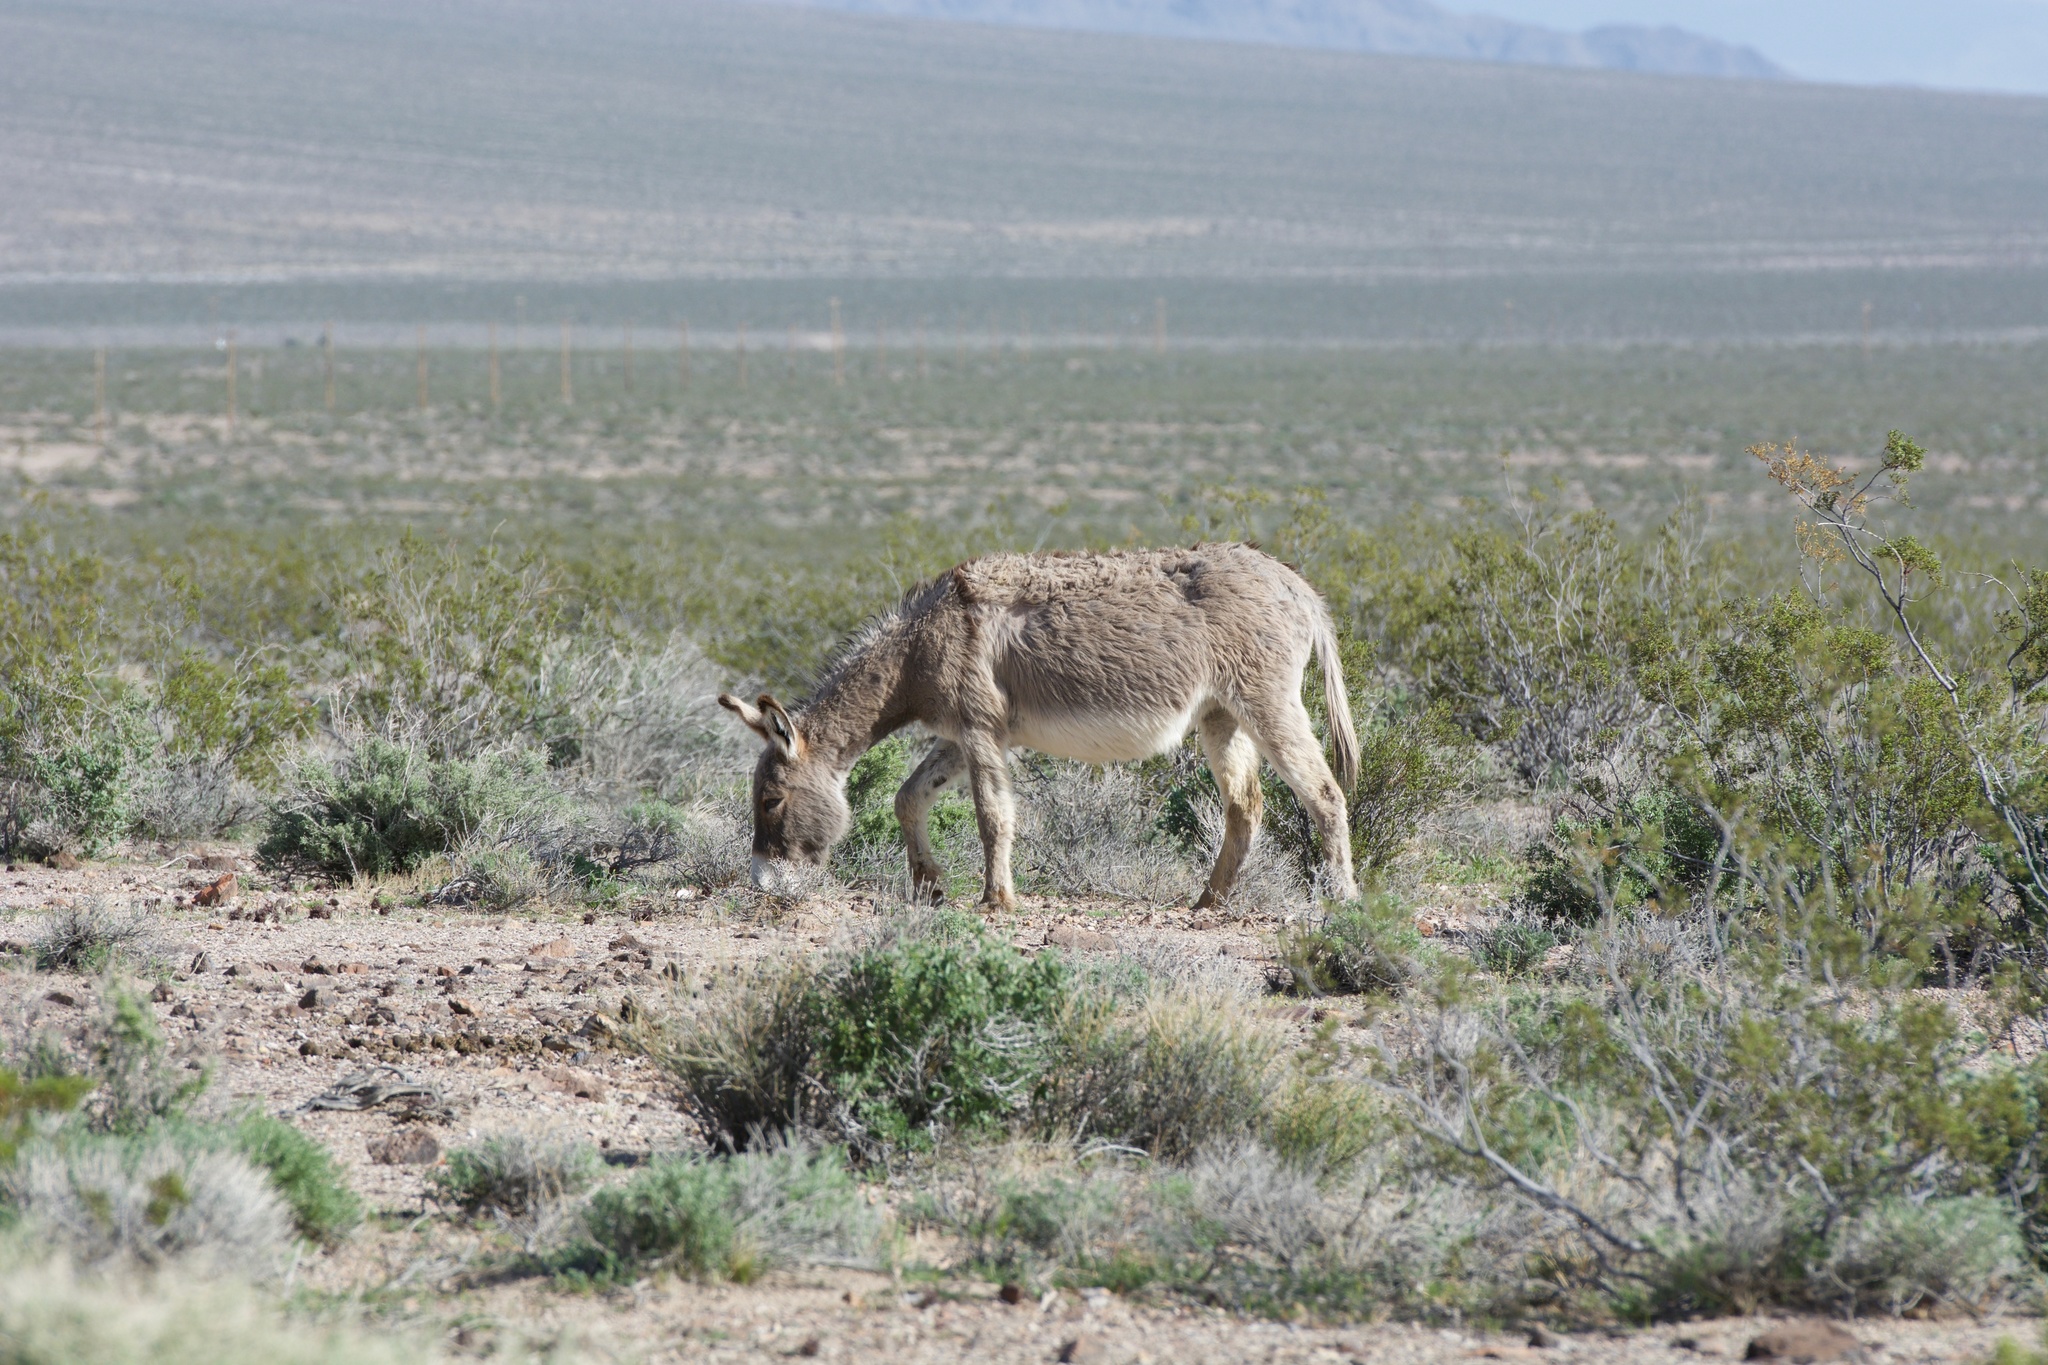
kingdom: Animalia
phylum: Chordata
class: Mammalia
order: Perissodactyla
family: Equidae
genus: Equus
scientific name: Equus asinus
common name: Ass
